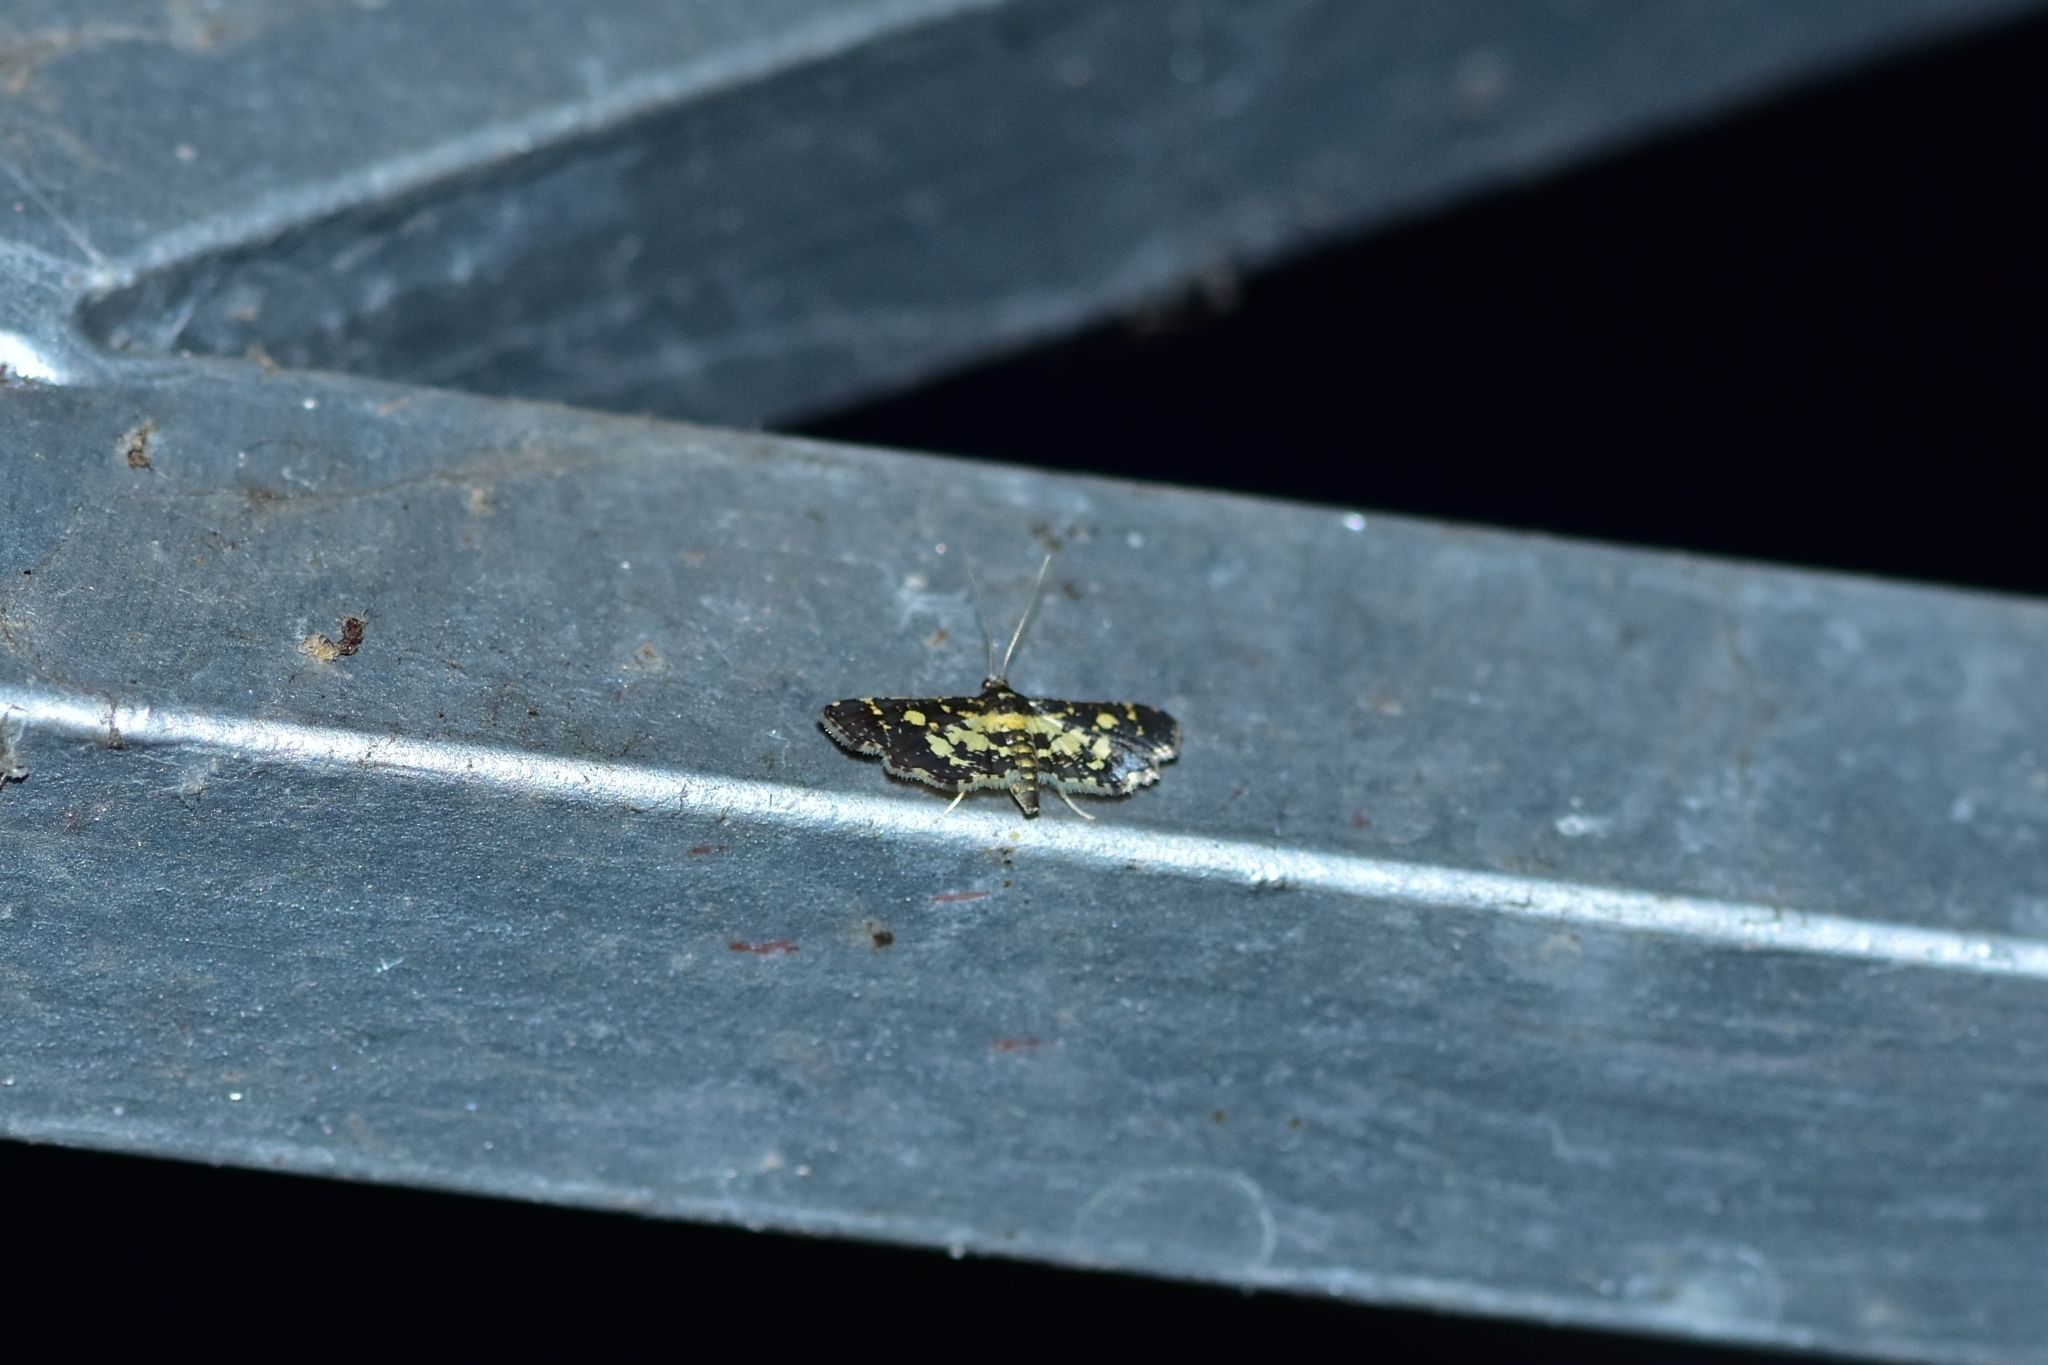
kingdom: Animalia
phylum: Arthropoda
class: Insecta
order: Lepidoptera
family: Crambidae
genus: Eurrhyparodes
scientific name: Eurrhyparodes bracteolalis
